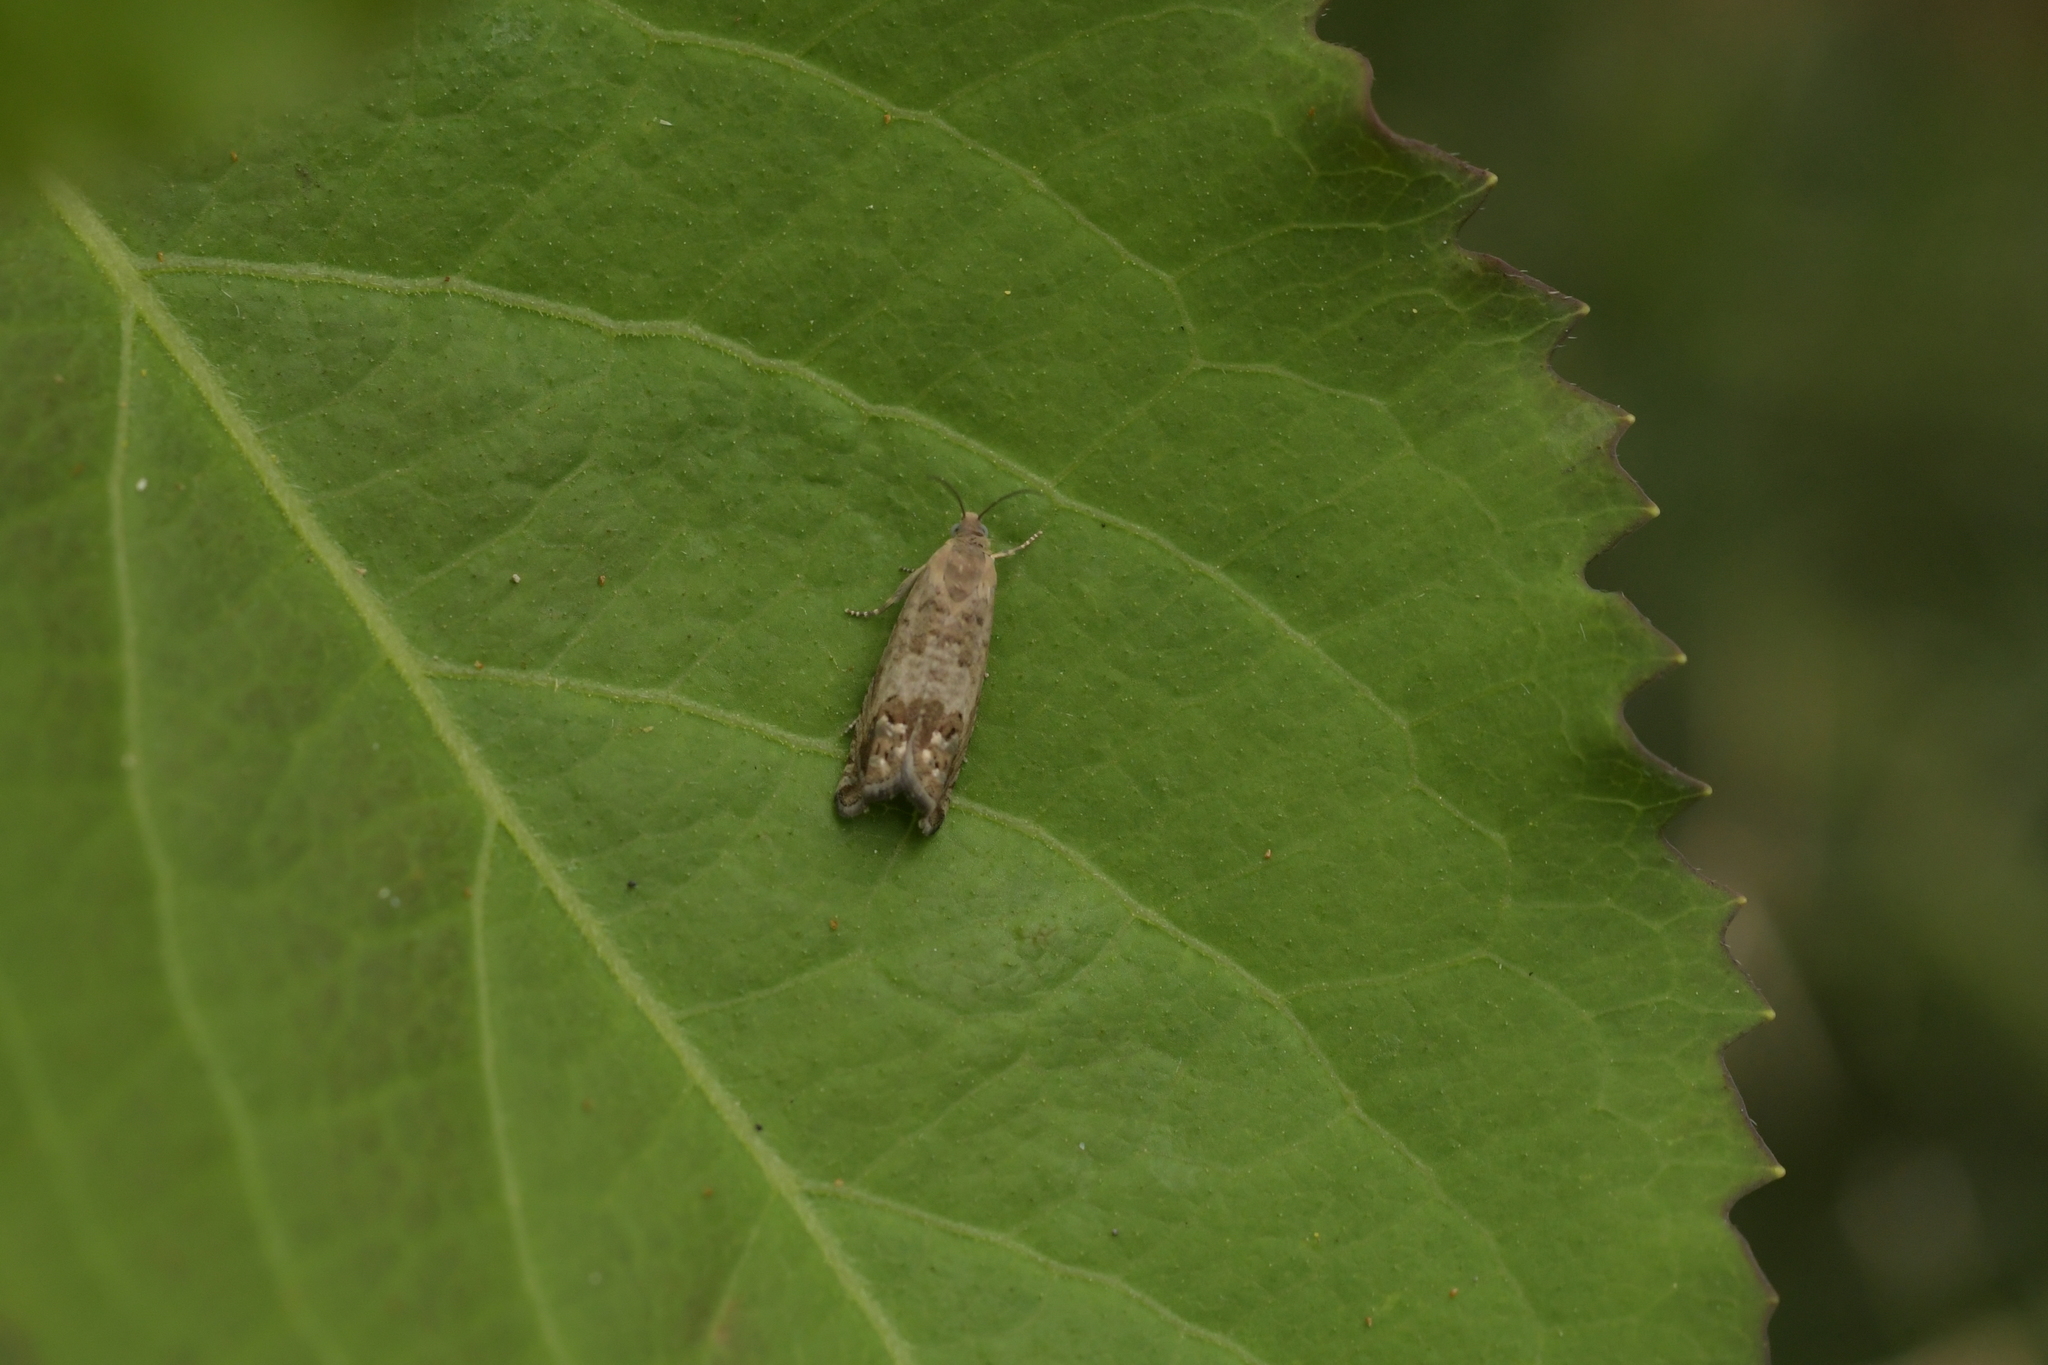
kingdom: Animalia
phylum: Arthropoda
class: Insecta
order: Lepidoptera
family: Tortricidae
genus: Cydia
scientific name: Cydia succedana
